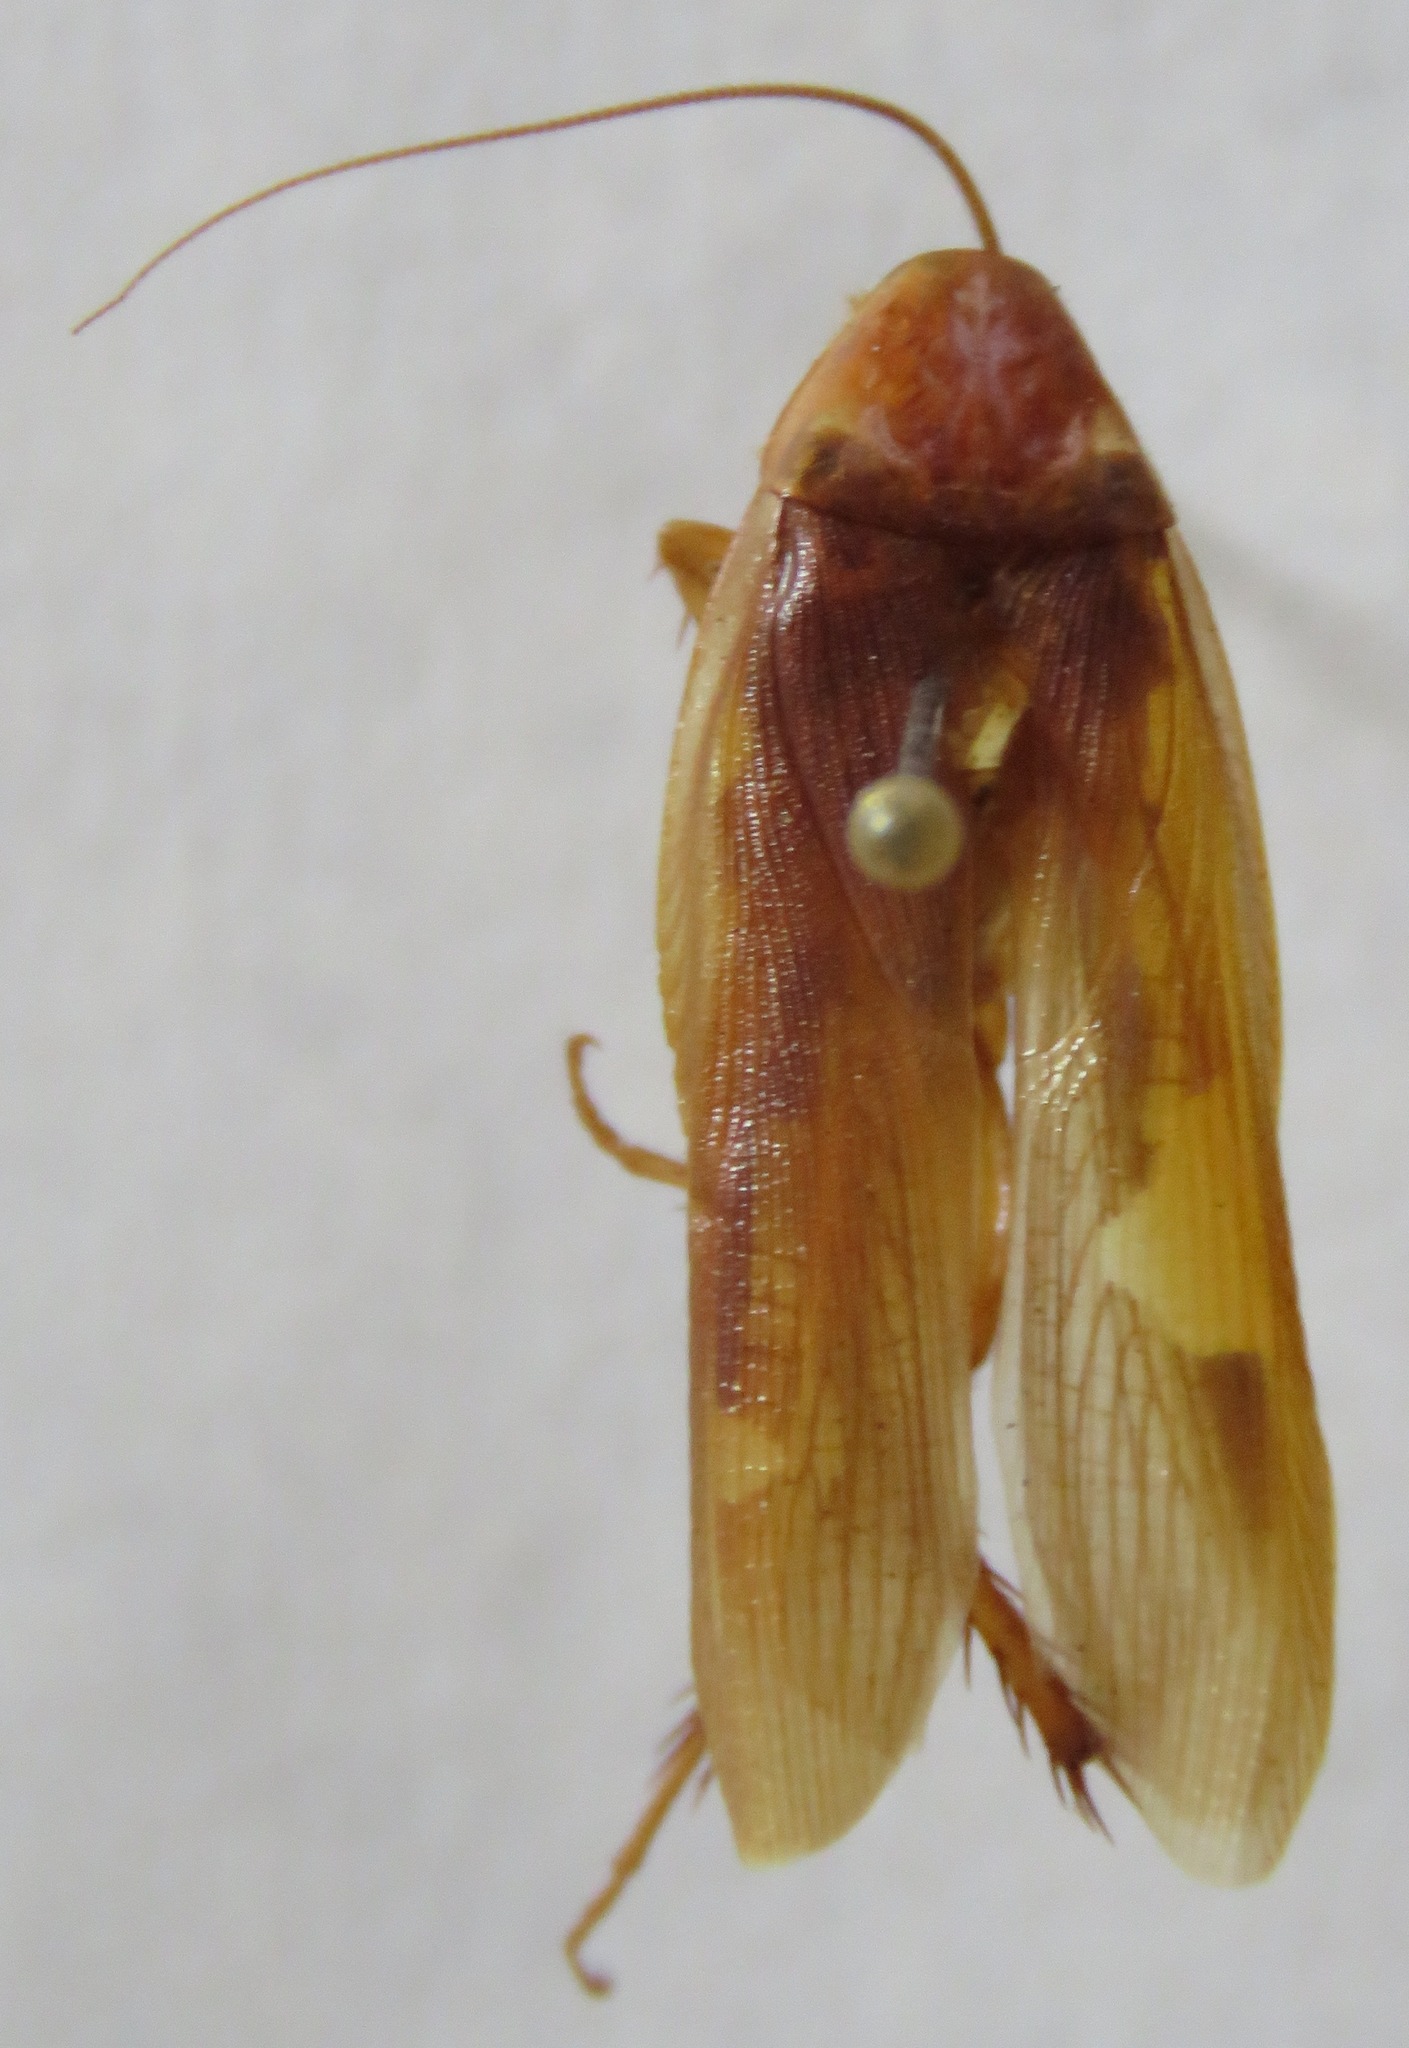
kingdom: Animalia
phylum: Arthropoda
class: Insecta
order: Blattodea
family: Ectobiidae
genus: Ischnoptera
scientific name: Ischnoptera rufa
